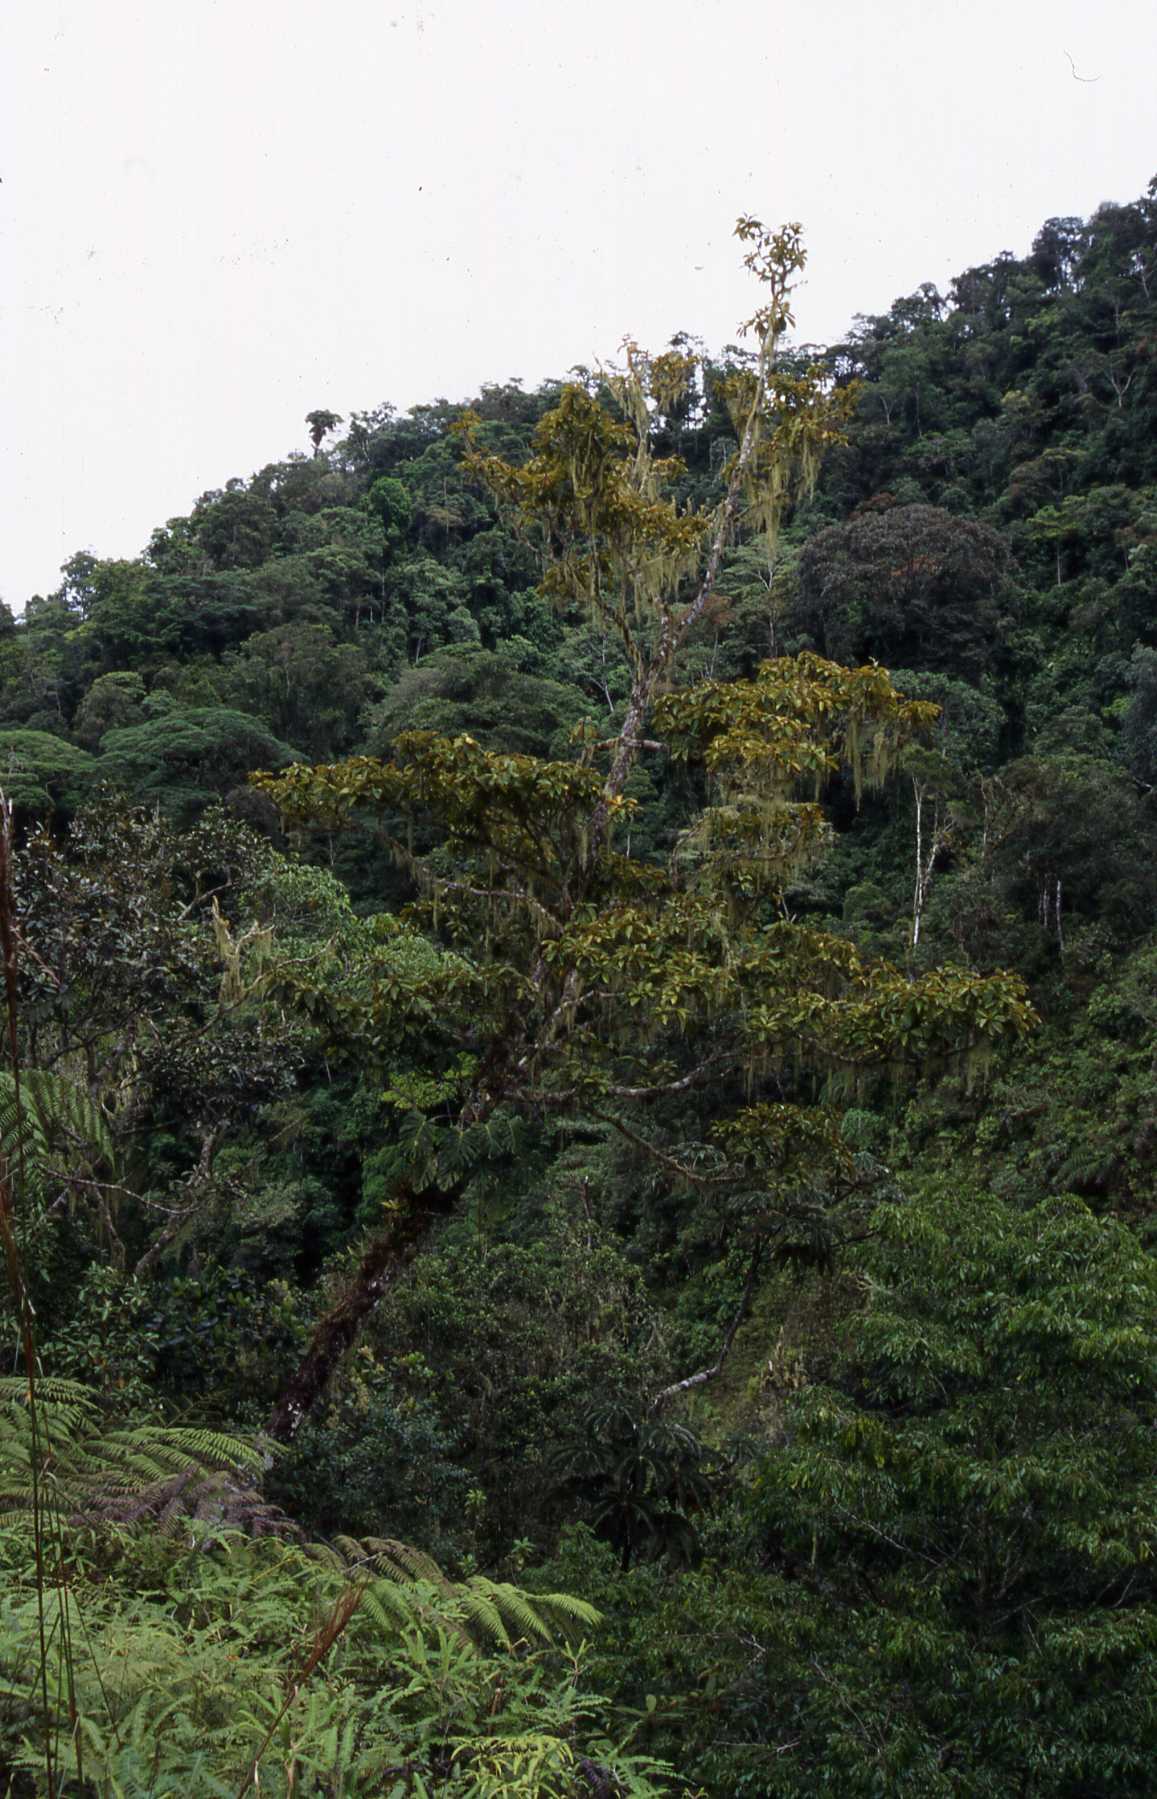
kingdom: Plantae
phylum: Tracheophyta
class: Liliopsida
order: Poales
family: Bromeliaceae
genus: Tillandsia
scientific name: Tillandsia usneoides
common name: Spanish moss
